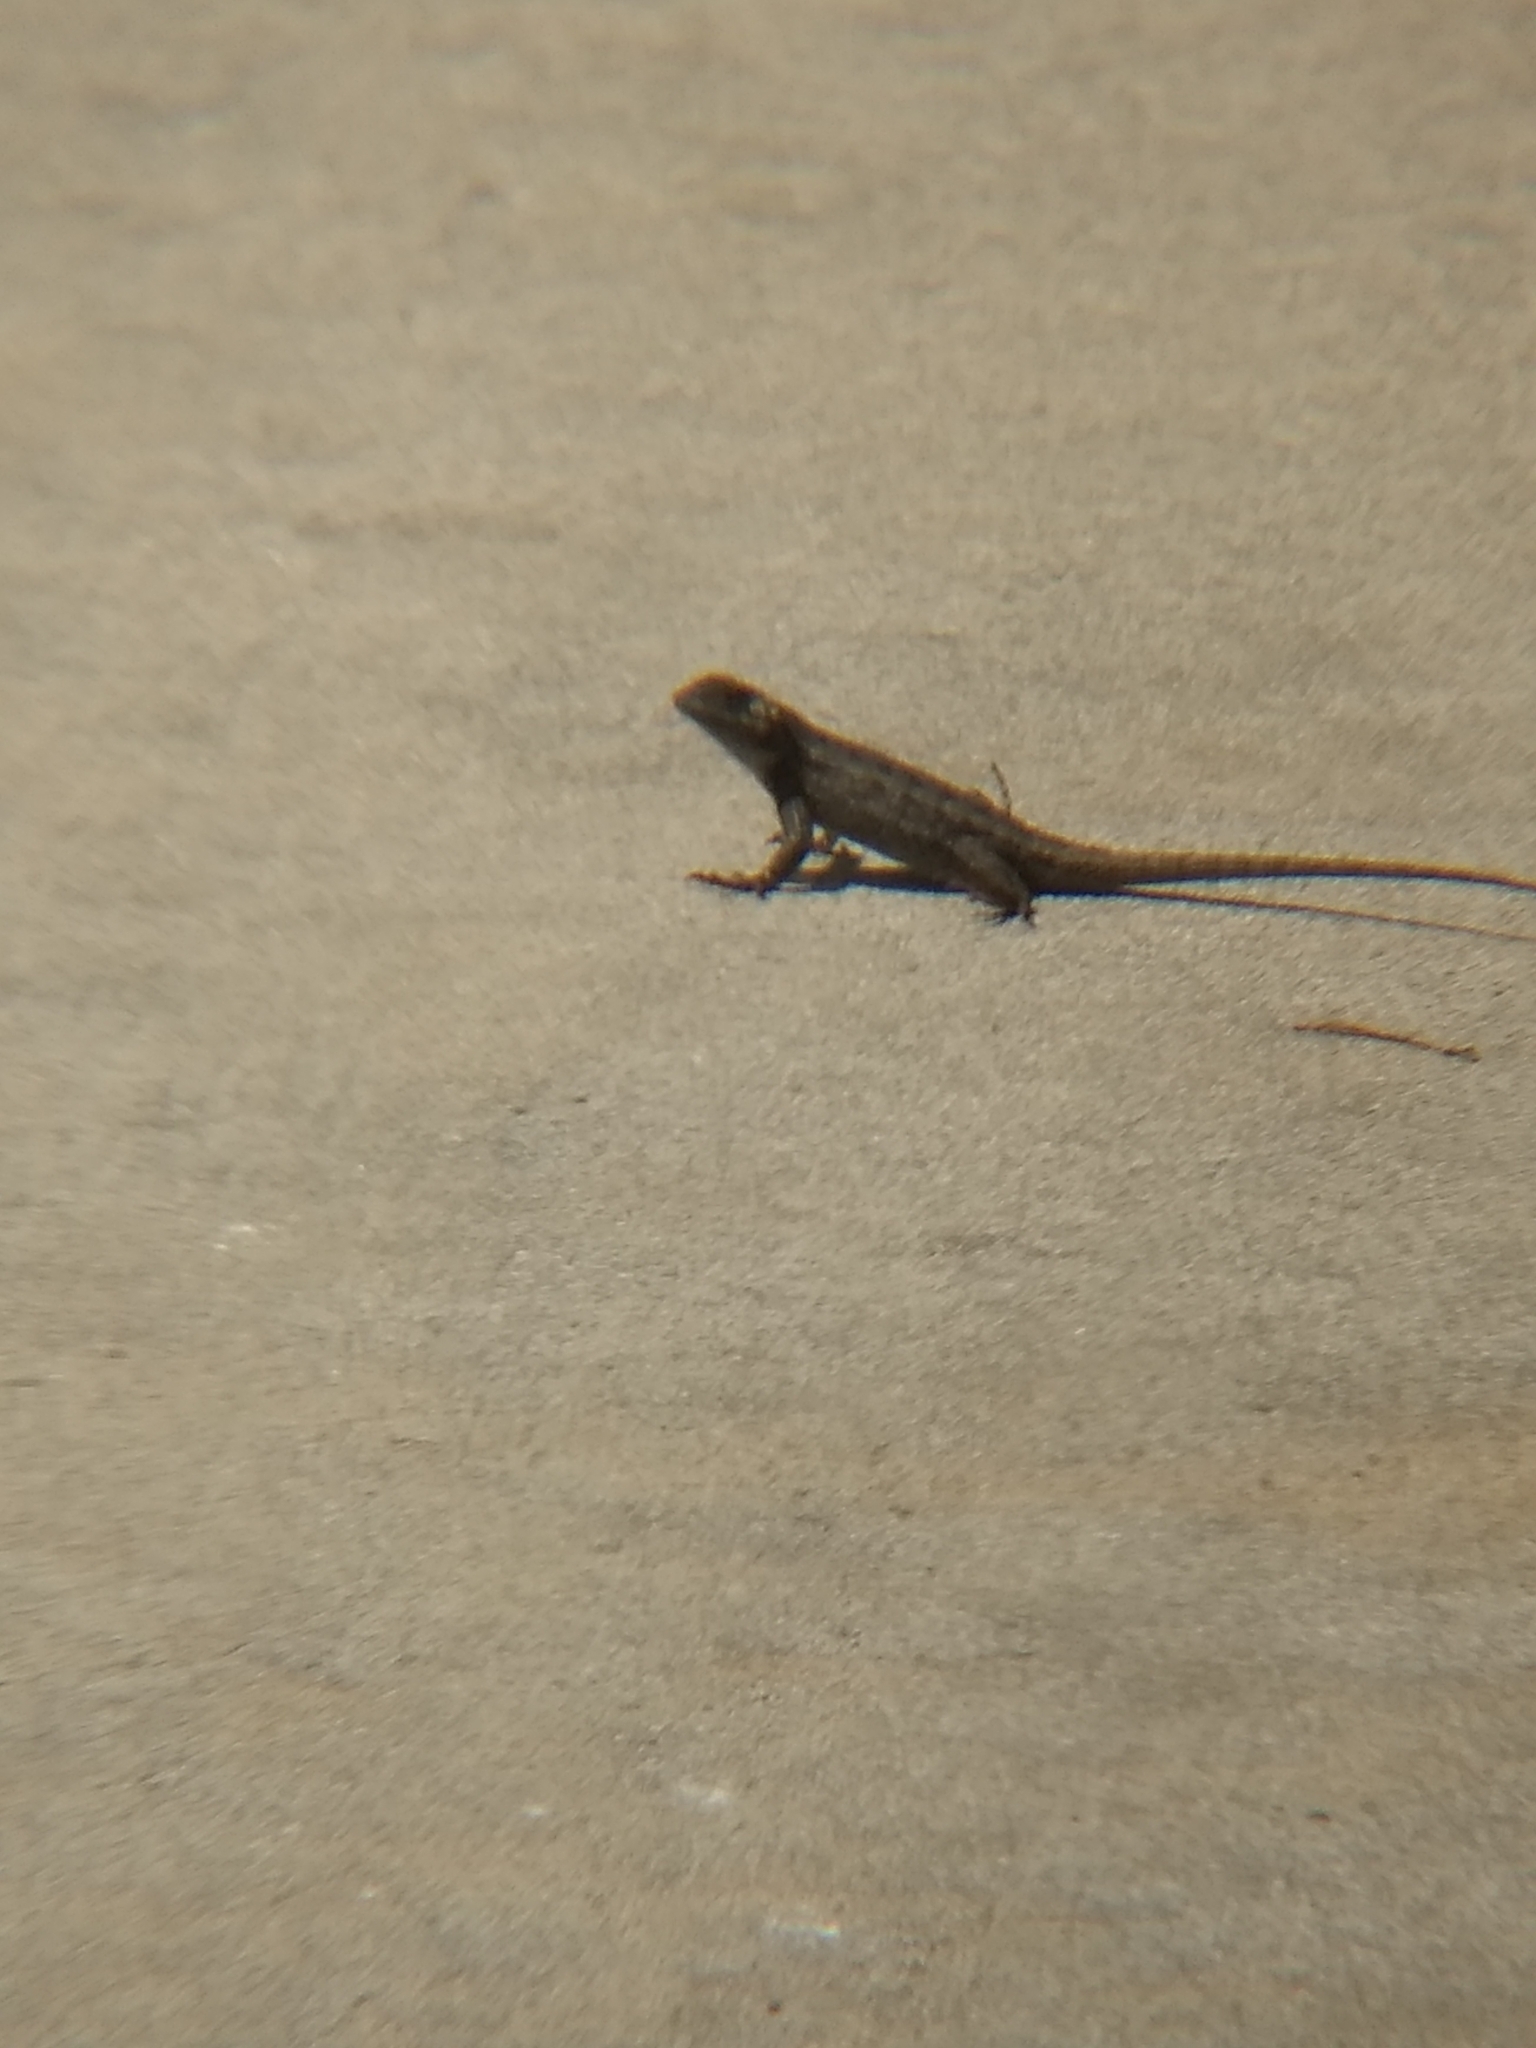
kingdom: Animalia
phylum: Chordata
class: Squamata
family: Phrynosomatidae
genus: Sceloporus
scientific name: Sceloporus occidentalis
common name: Western fence lizard
